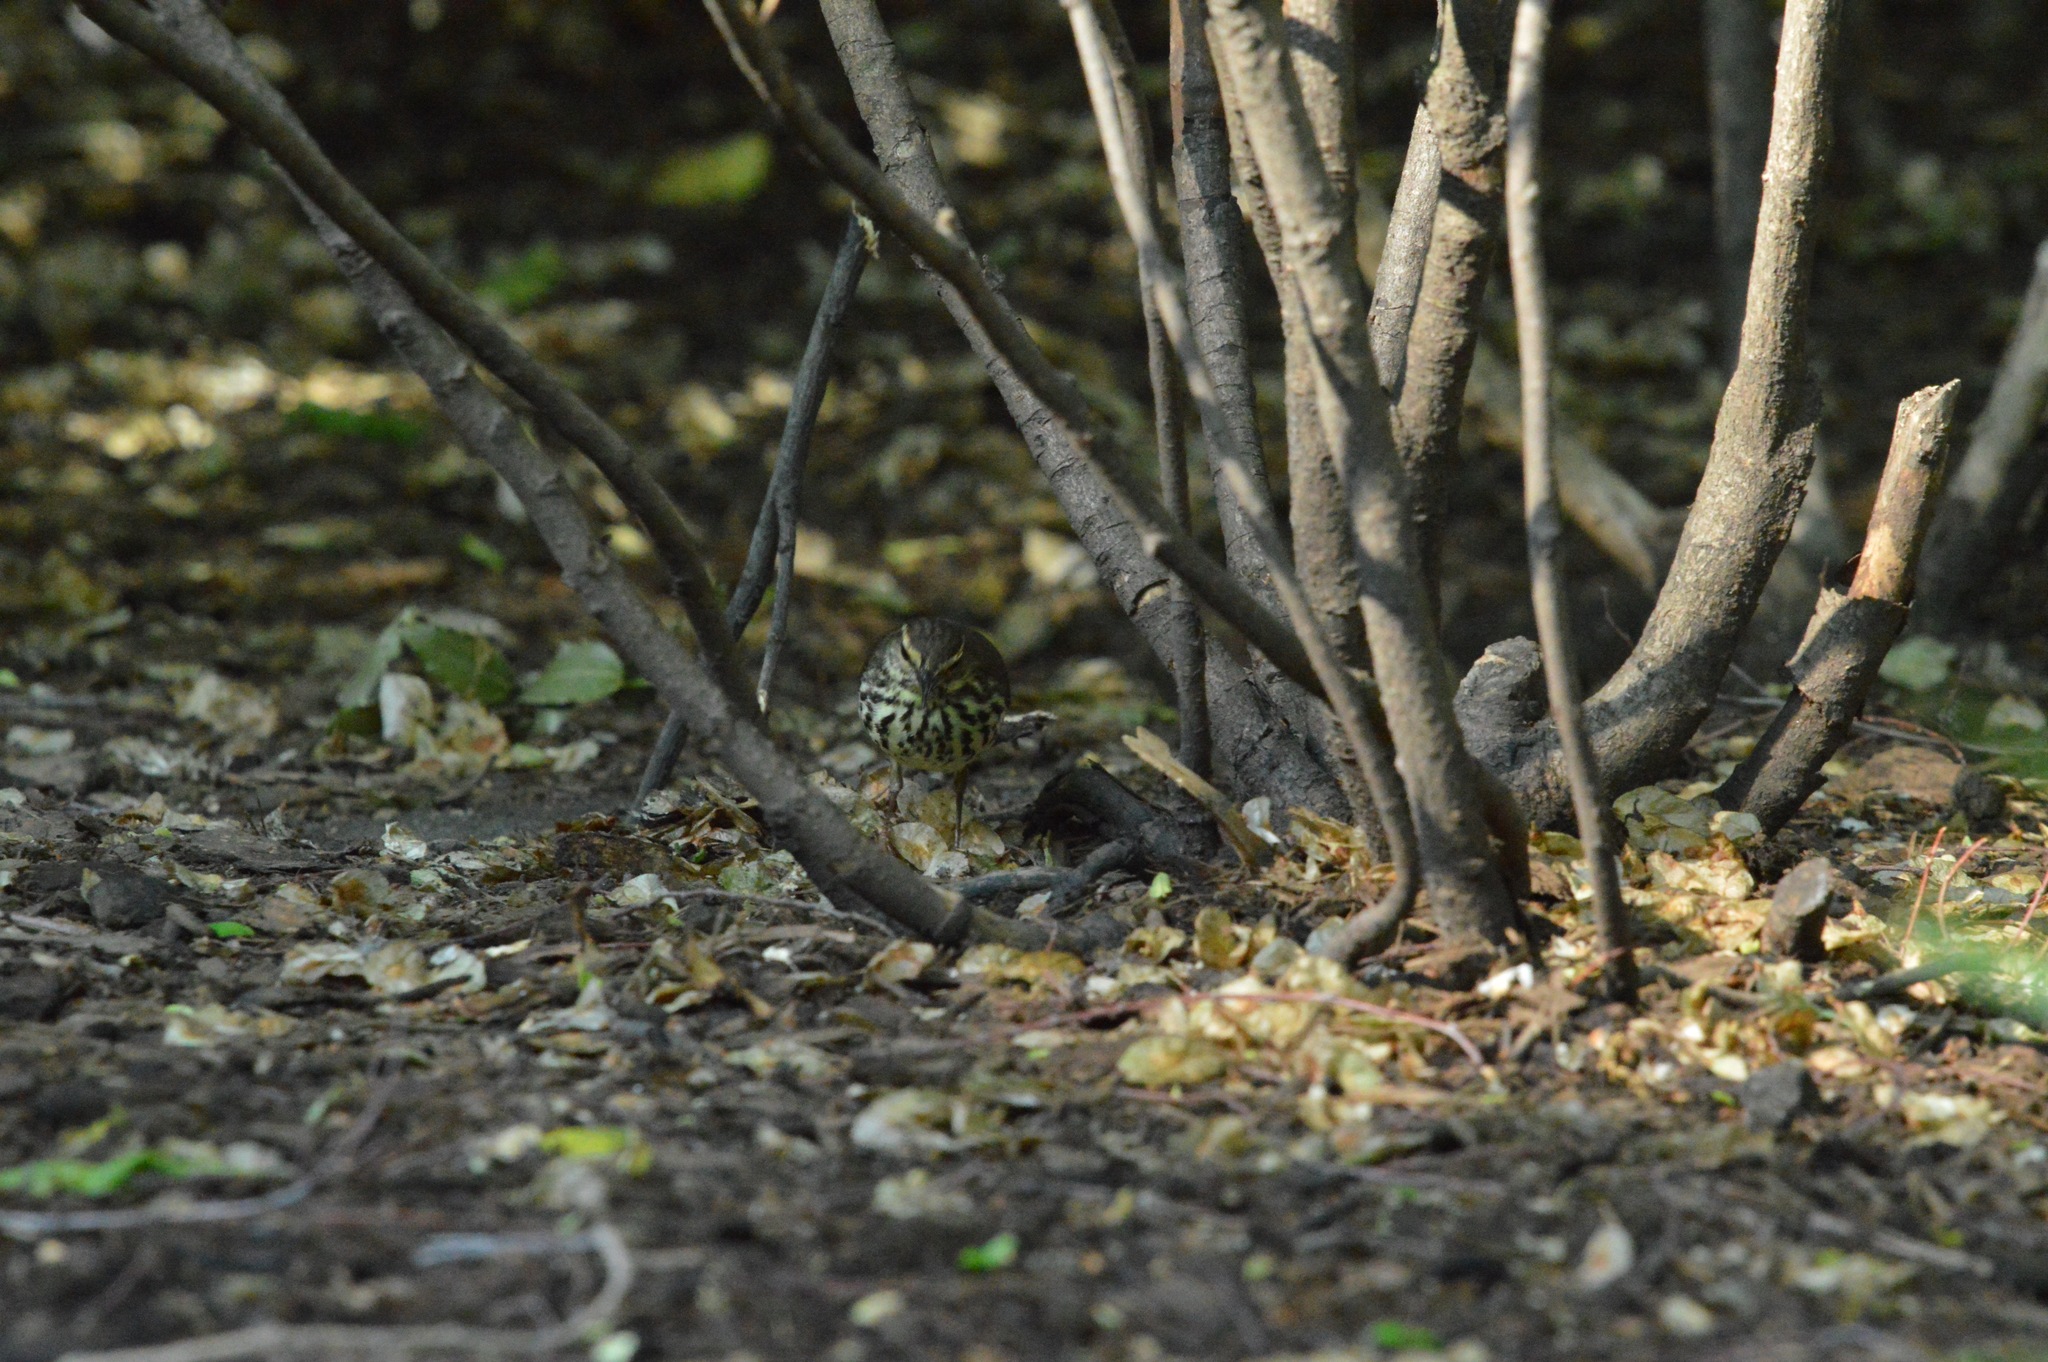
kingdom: Animalia
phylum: Chordata
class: Aves
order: Passeriformes
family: Parulidae
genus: Parkesia
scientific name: Parkesia noveboracensis
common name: Northern waterthrush
